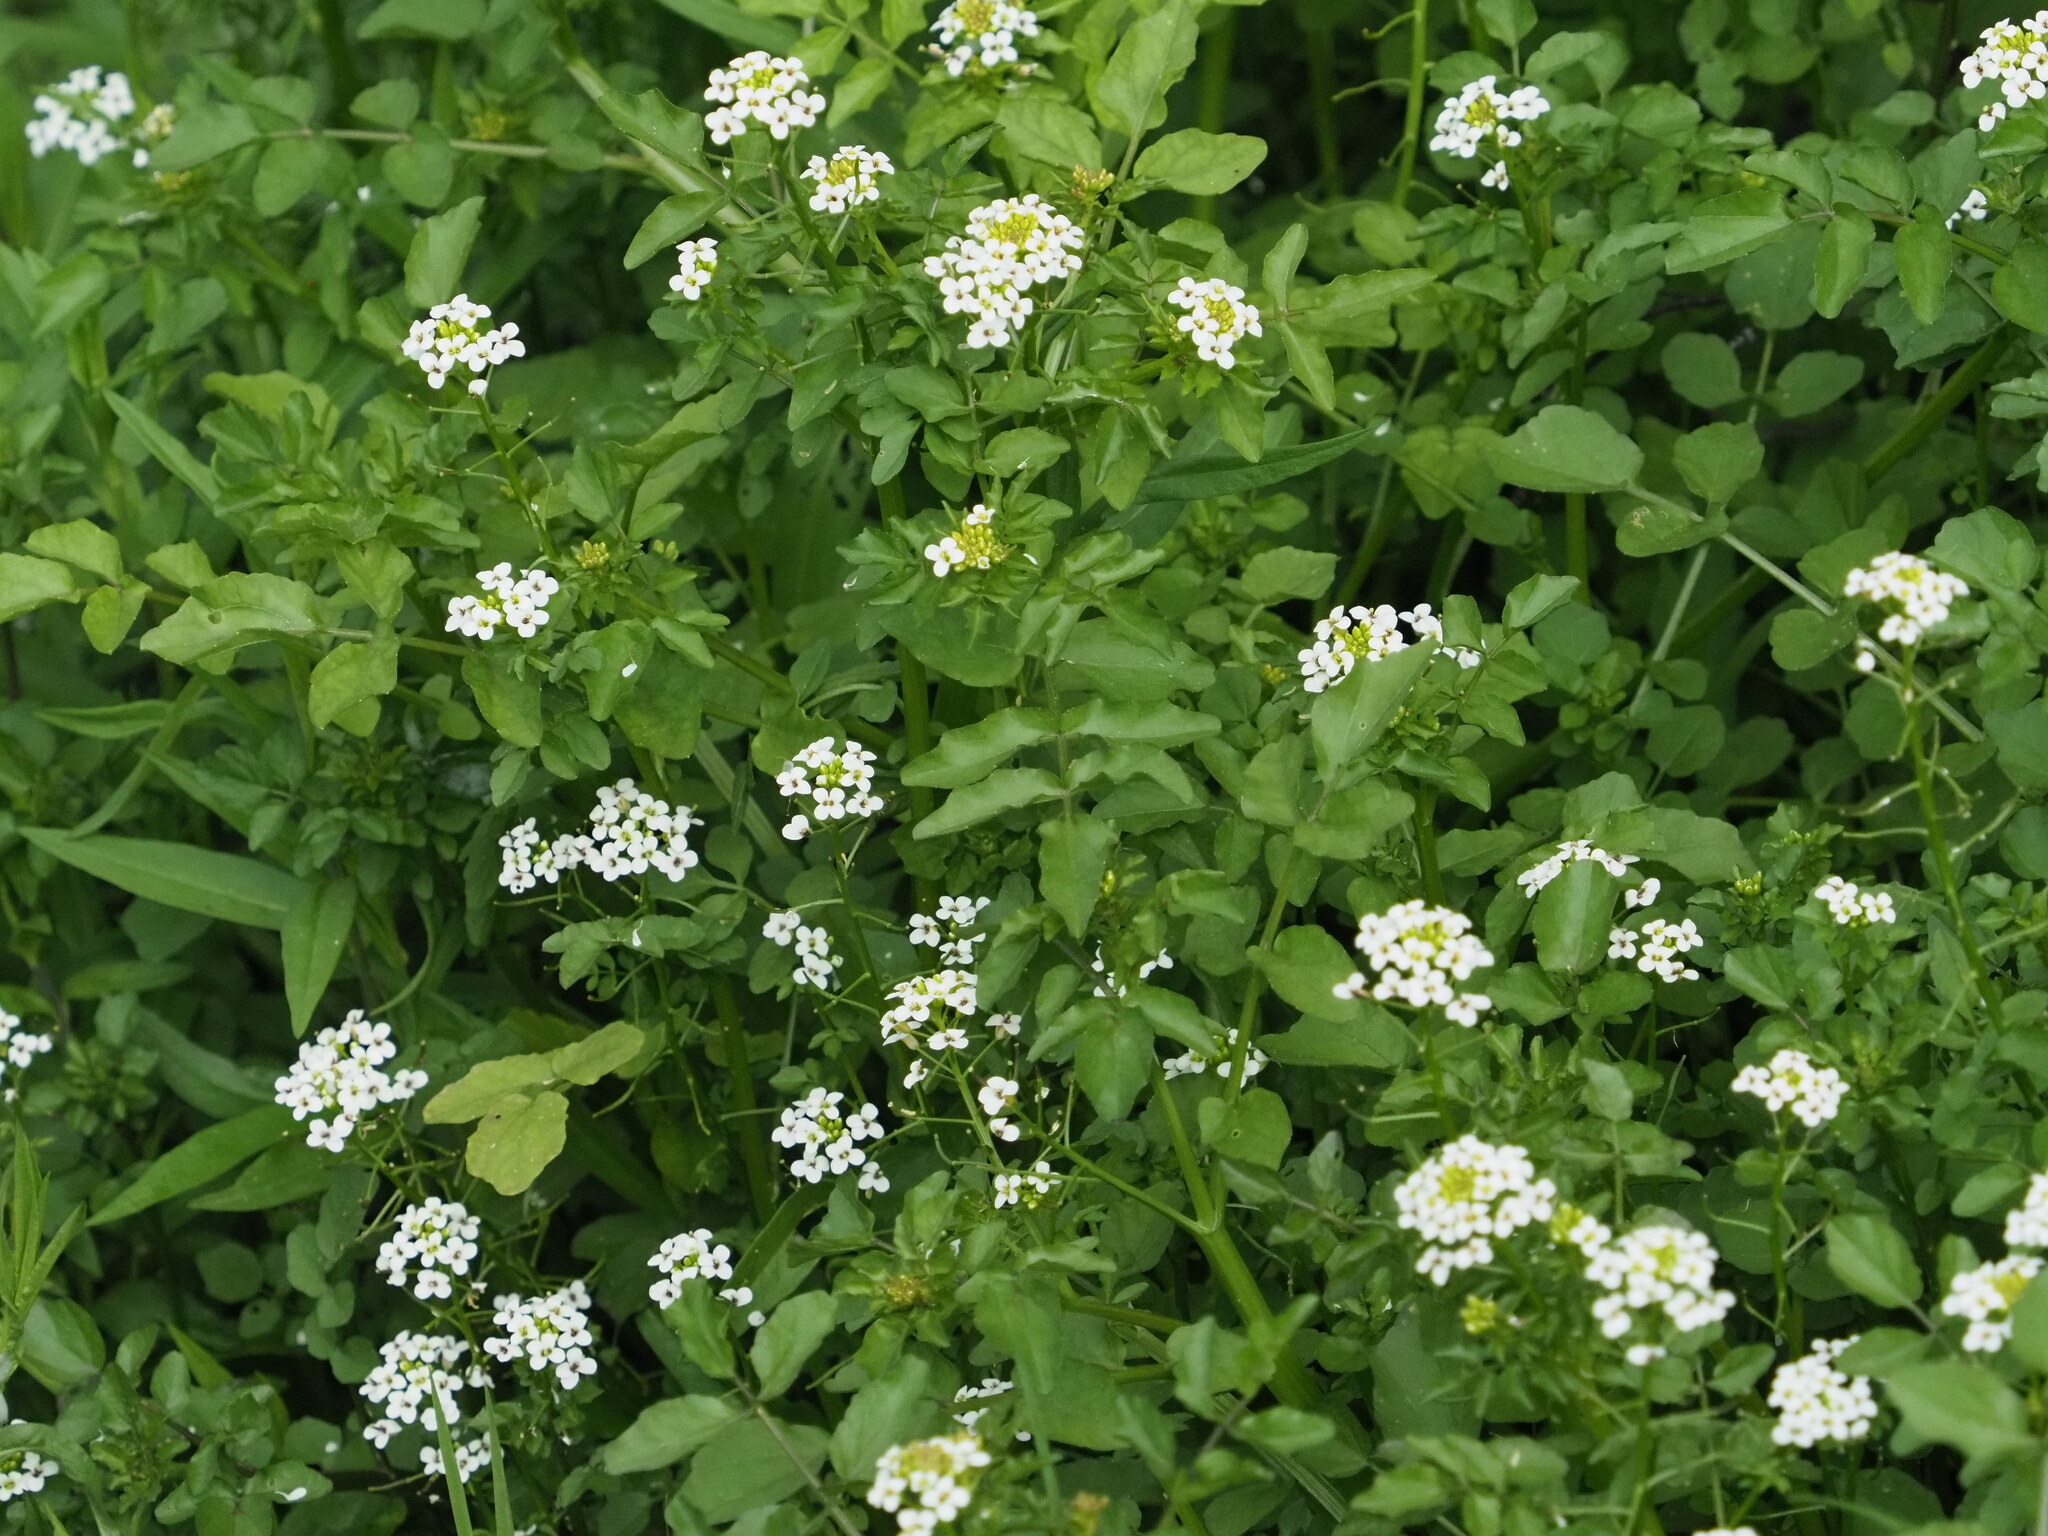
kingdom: Plantae
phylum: Tracheophyta
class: Magnoliopsida
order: Brassicales
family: Brassicaceae
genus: Nasturtium
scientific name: Nasturtium officinale
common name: Watercress
